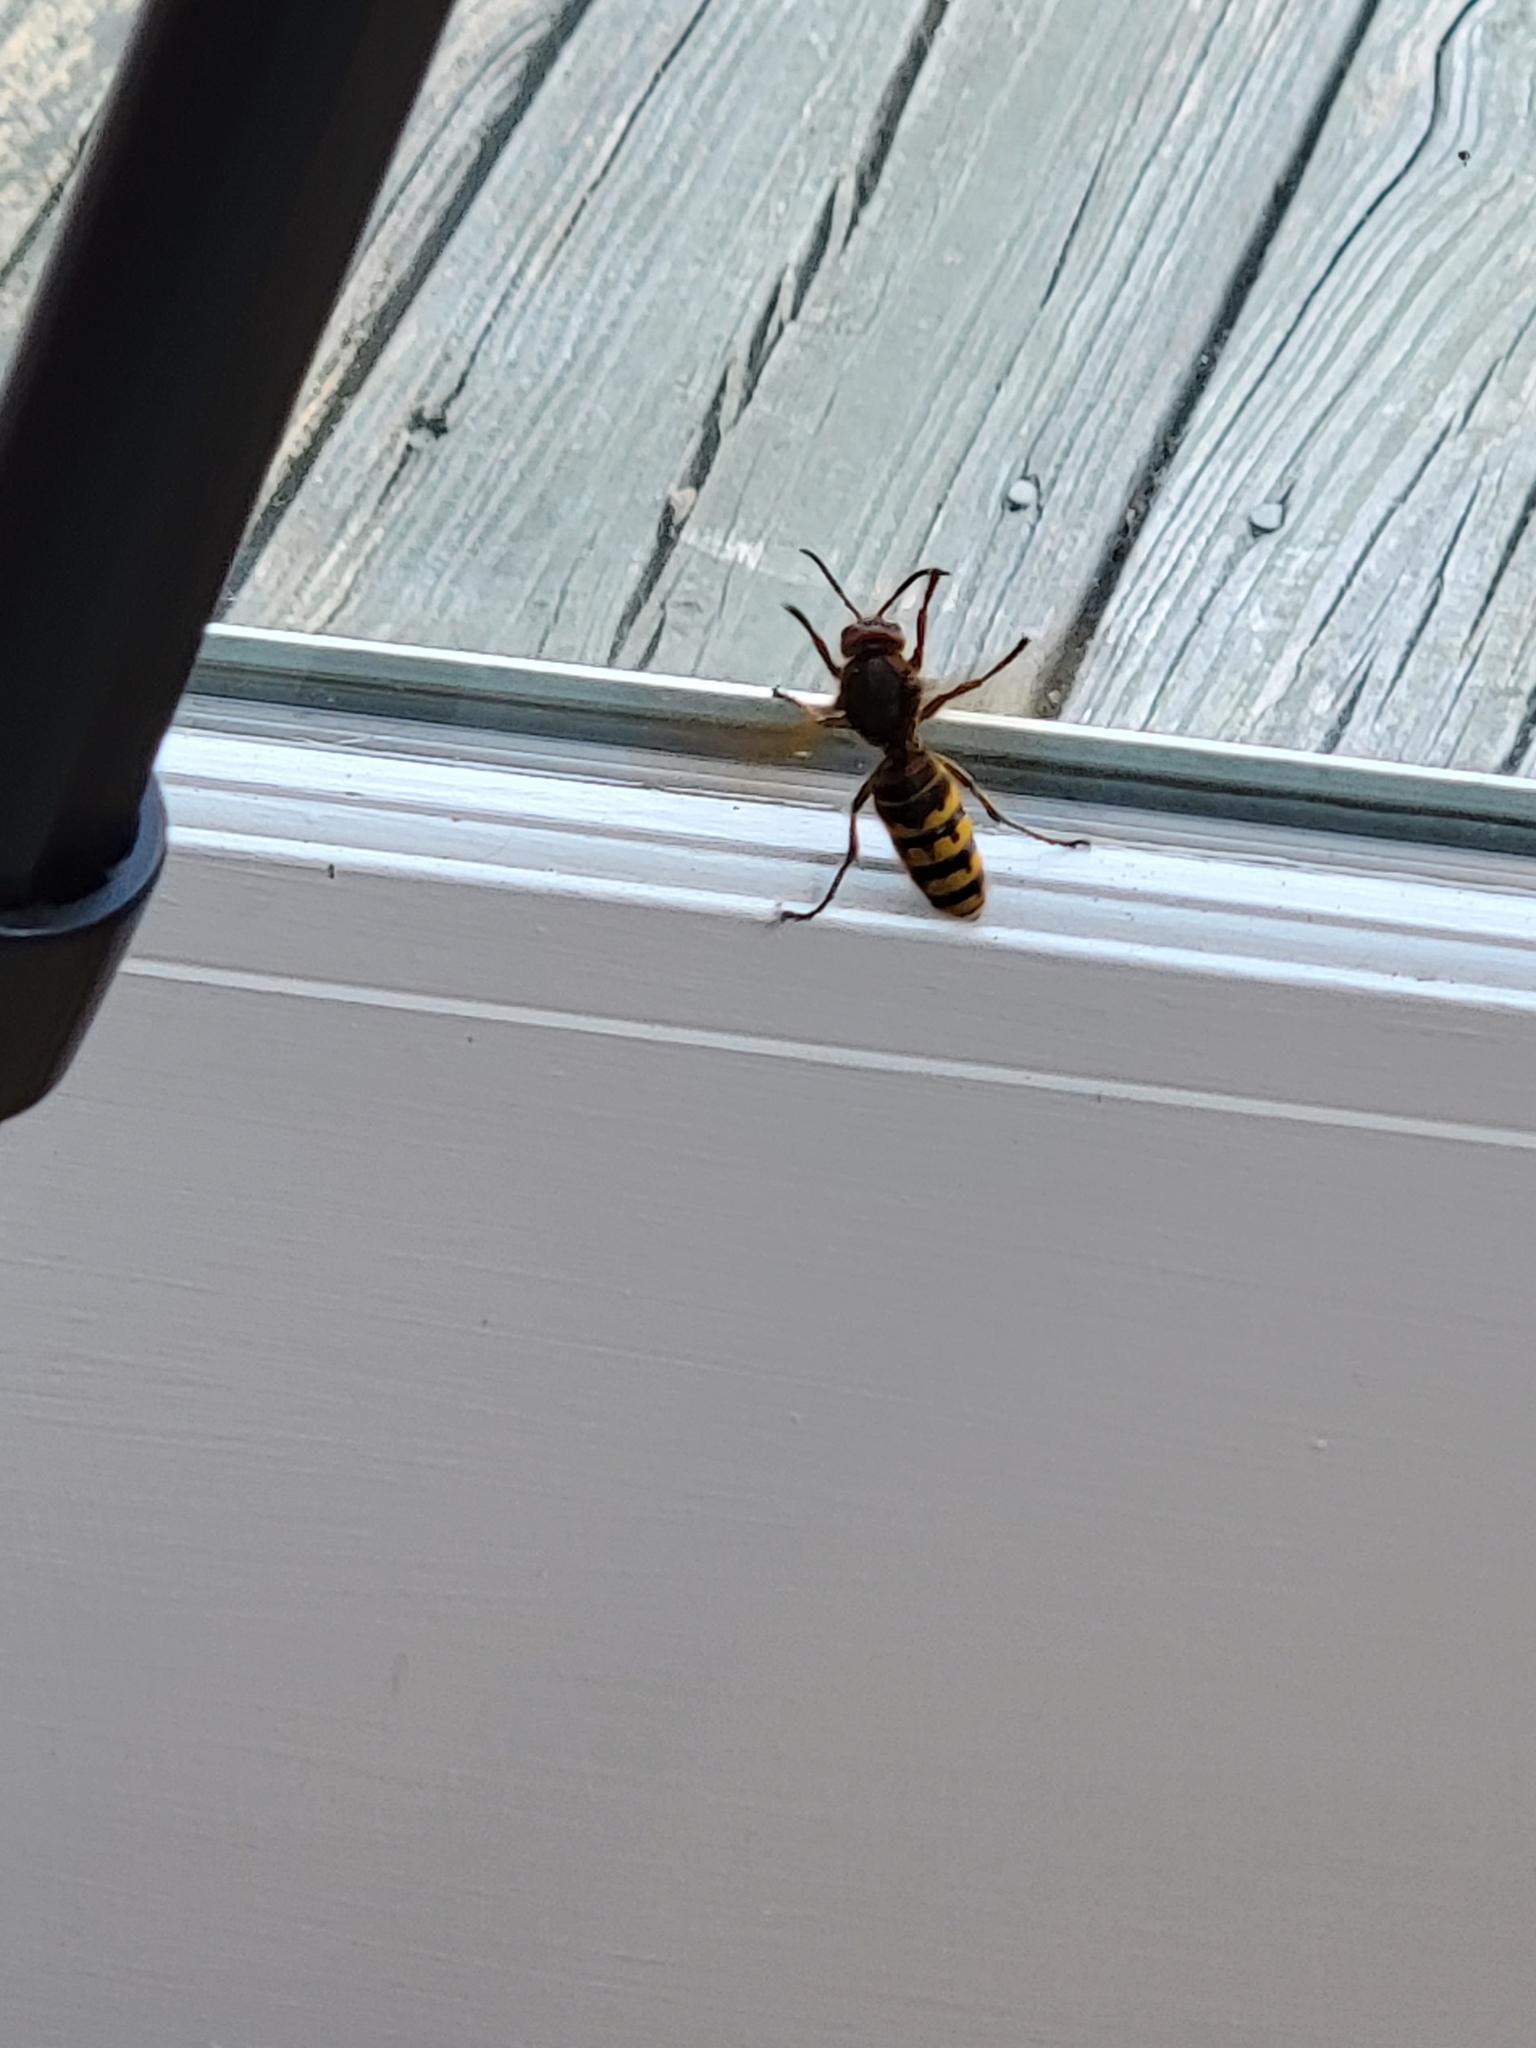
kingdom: Animalia
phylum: Arthropoda
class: Insecta
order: Hymenoptera
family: Vespidae
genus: Vespa
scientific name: Vespa crabro
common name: Hornet
